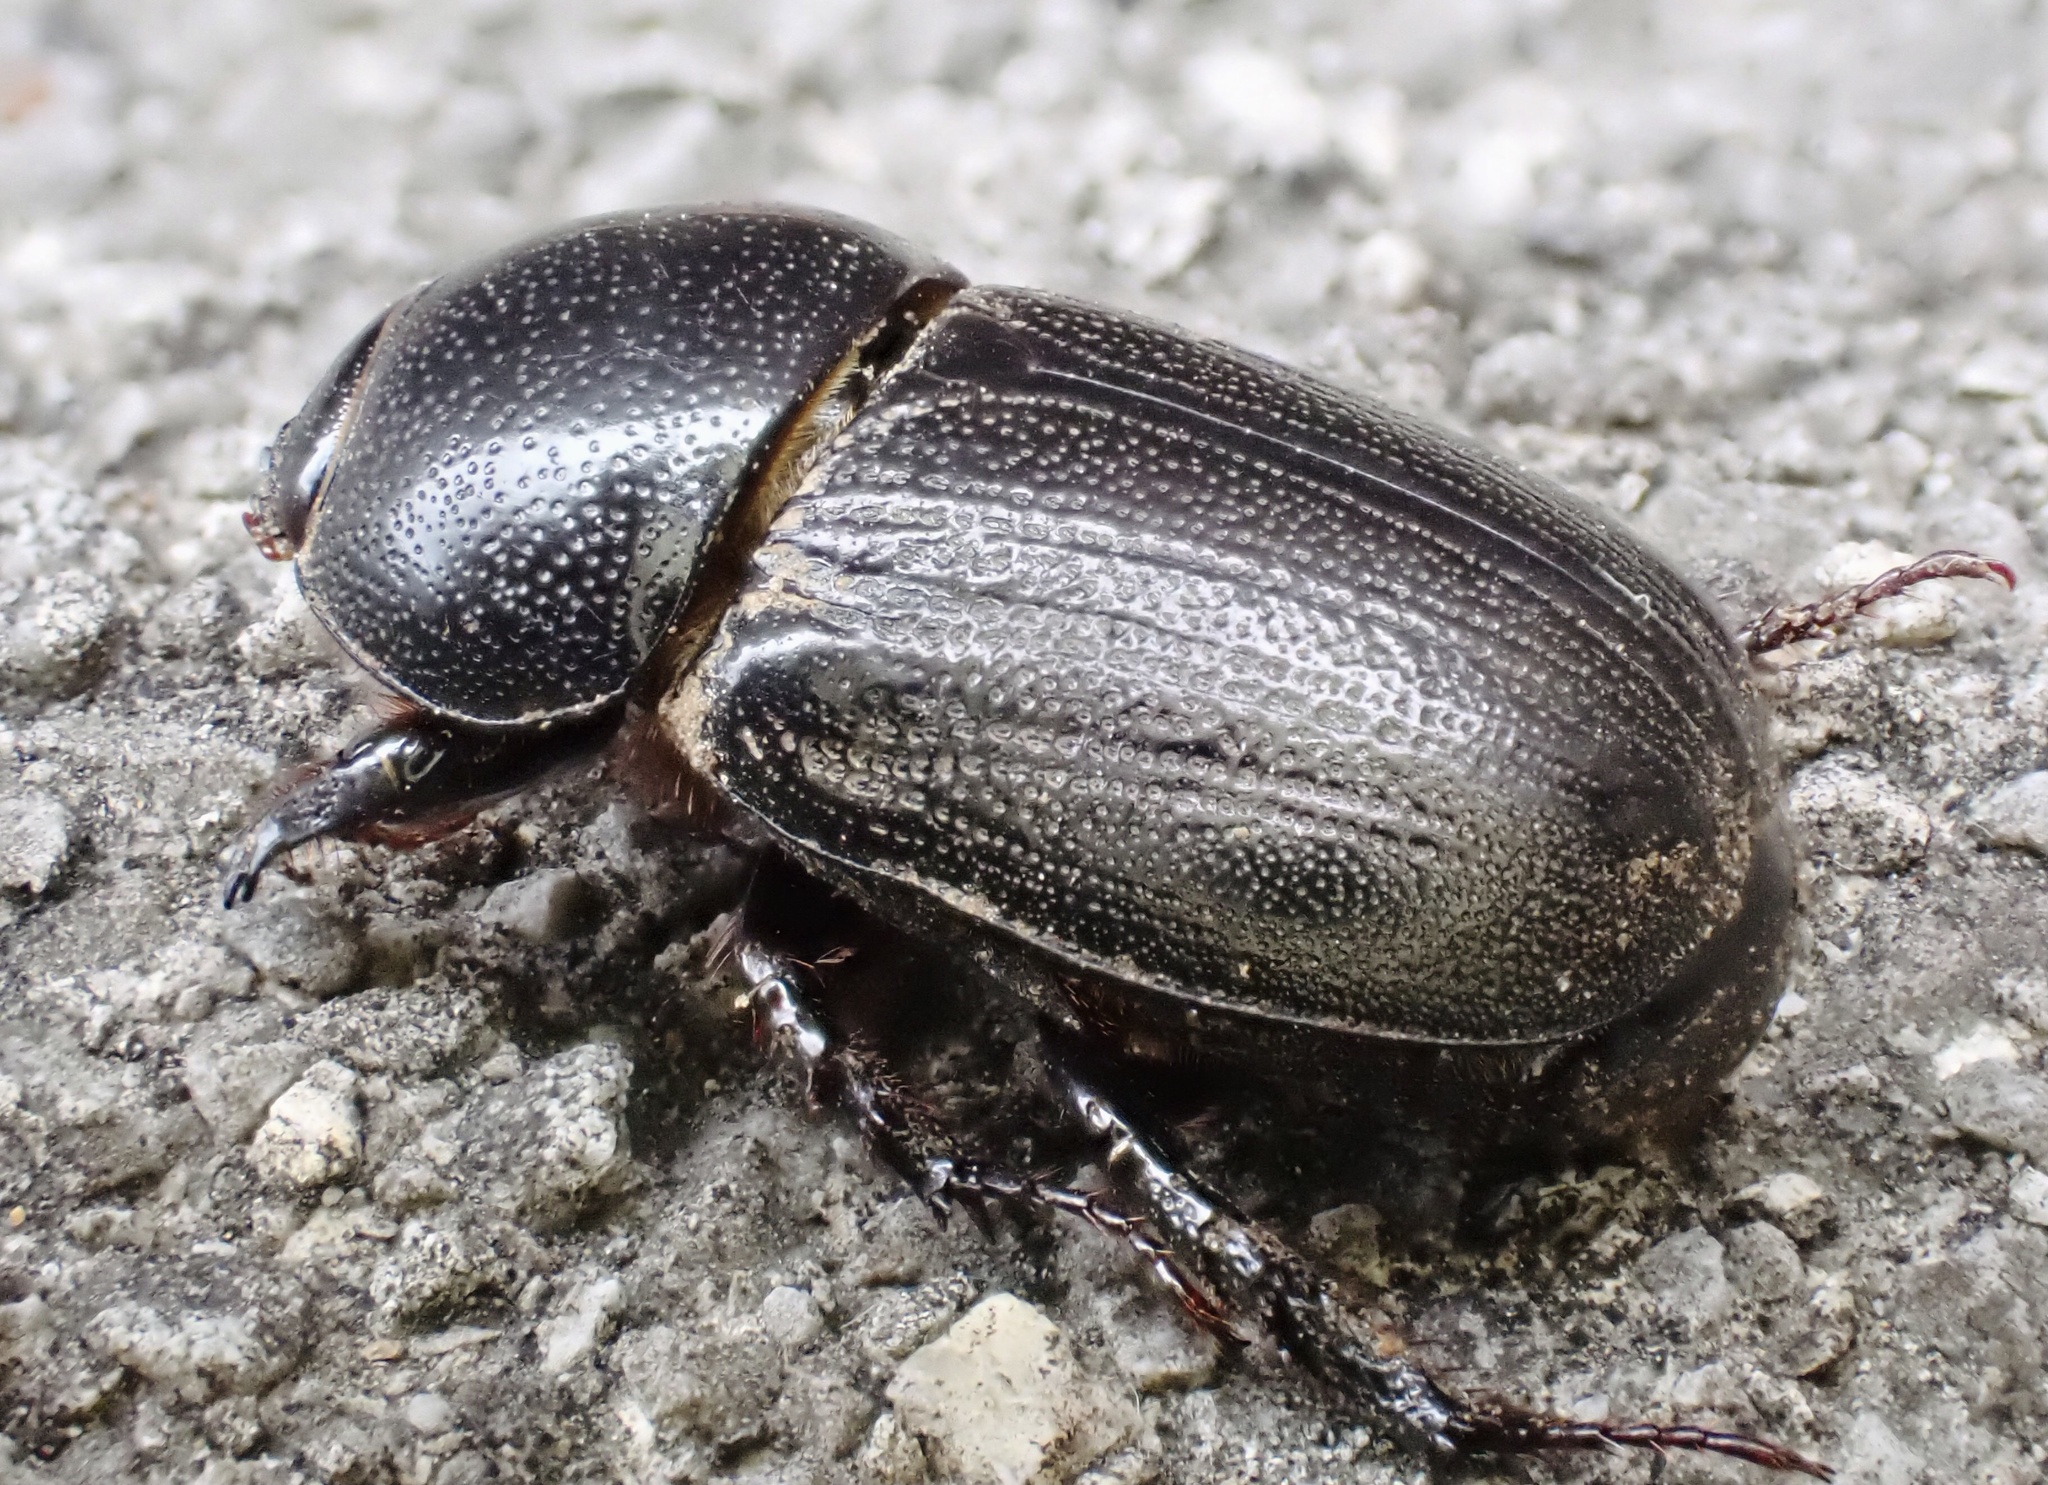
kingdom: Animalia
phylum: Arthropoda
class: Insecta
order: Coleoptera
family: Scarabaeidae
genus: Euetheola
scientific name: Euetheola humilis
